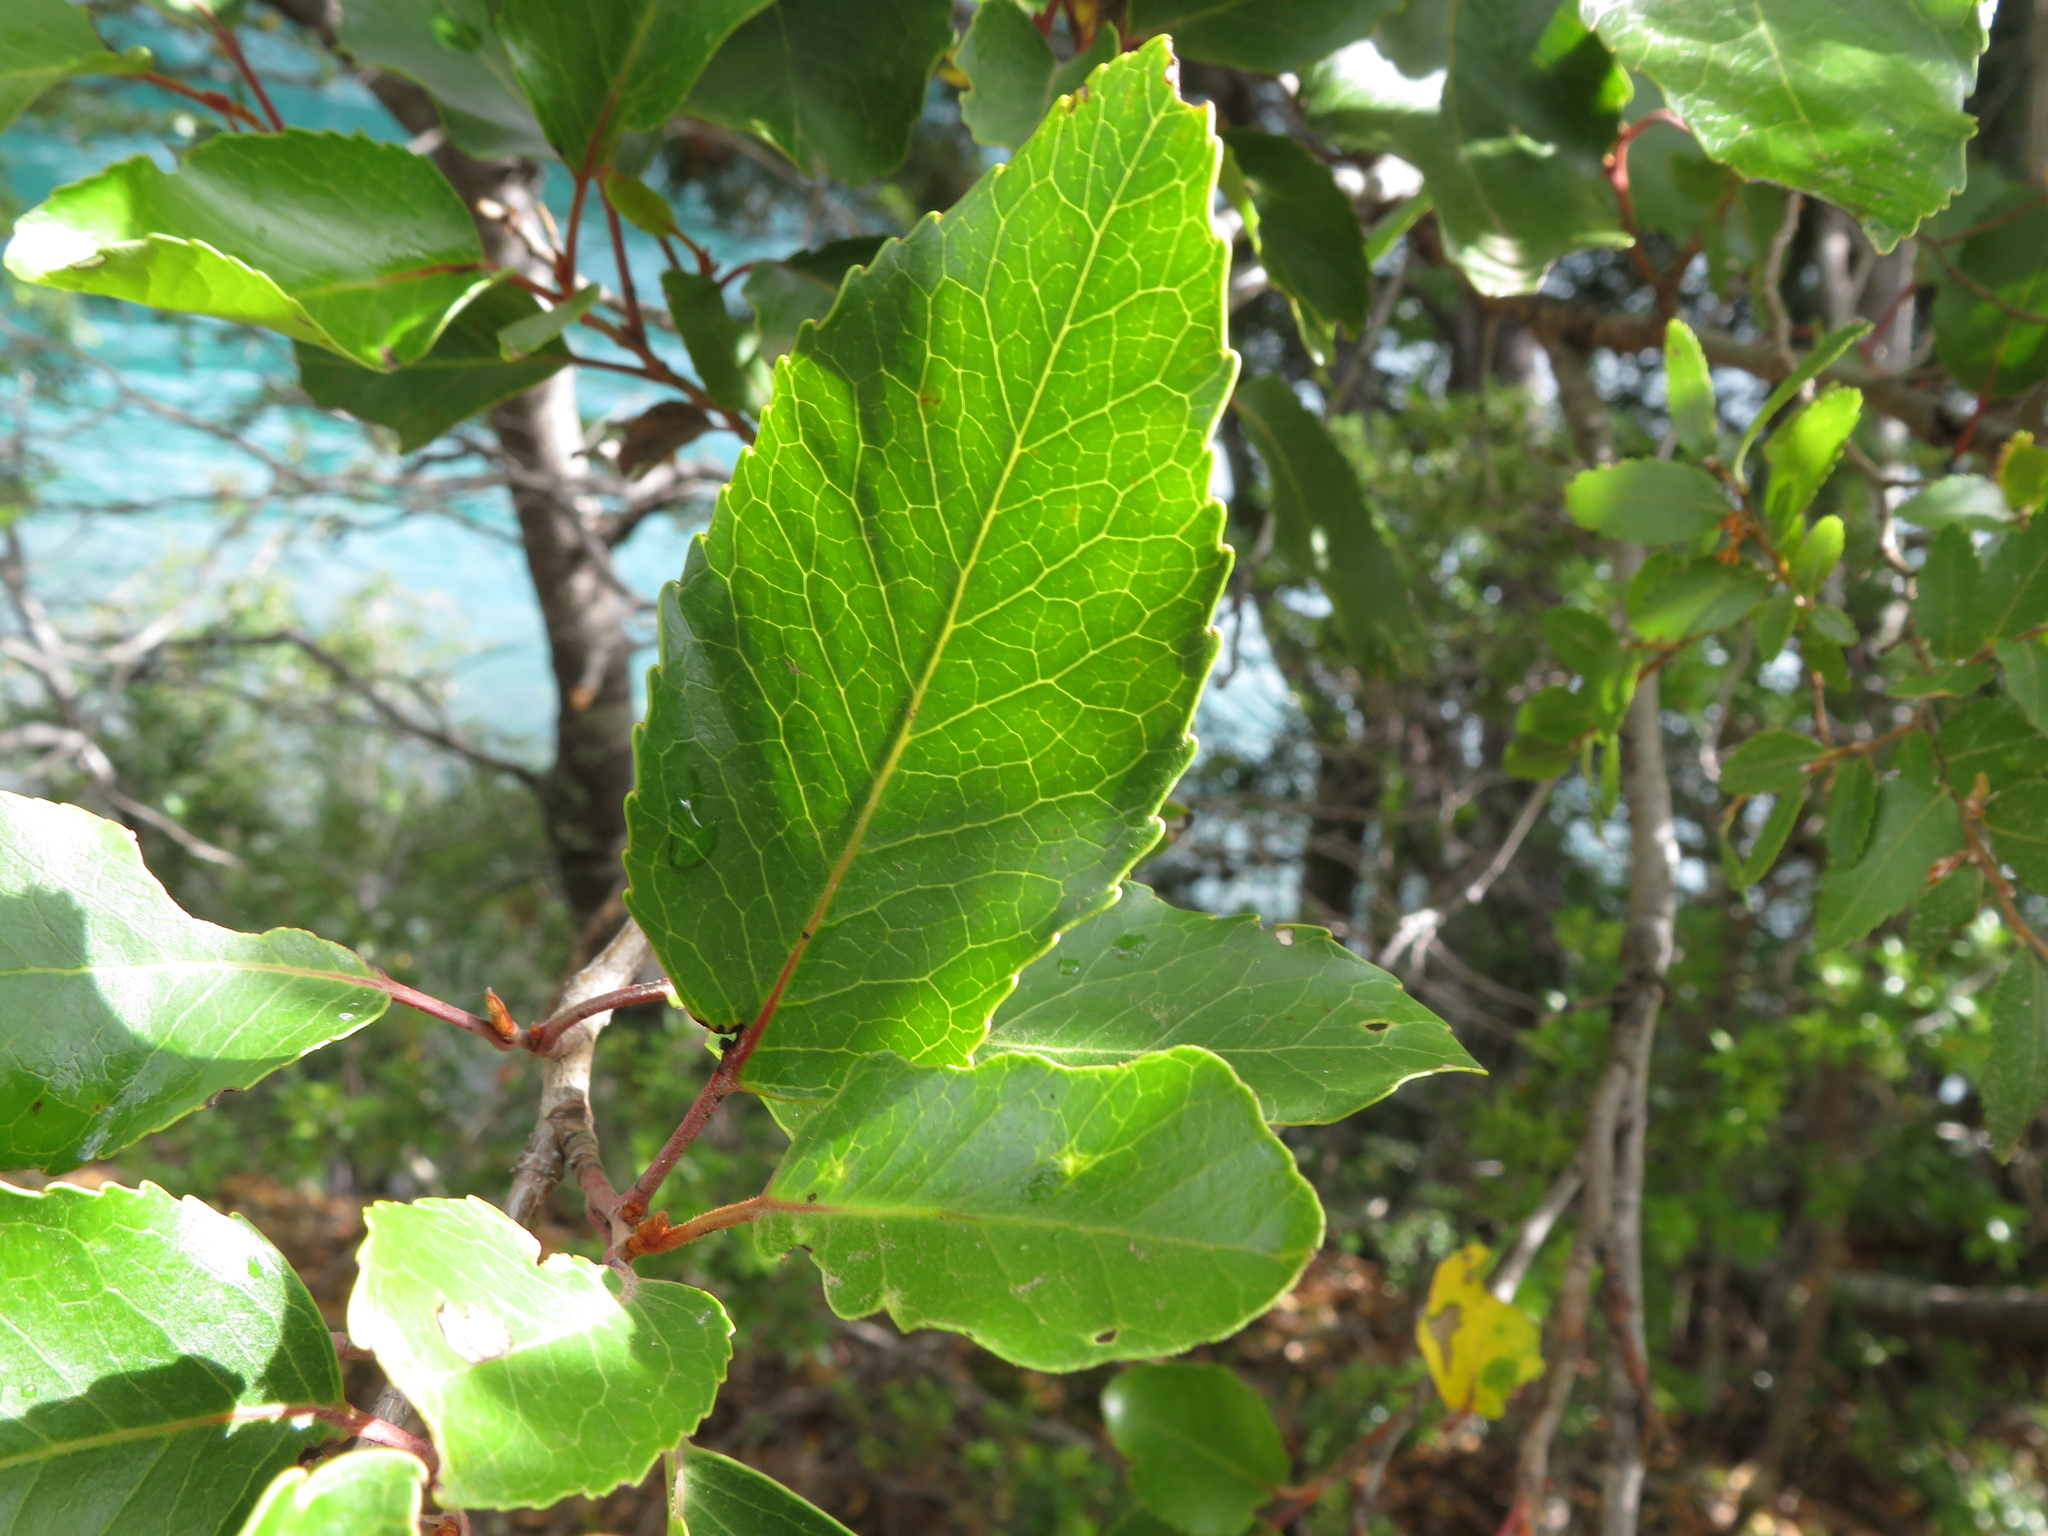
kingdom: Plantae
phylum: Tracheophyta
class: Magnoliopsida
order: Proteales
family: Proteaceae
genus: Lomatia
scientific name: Lomatia hirsuta
